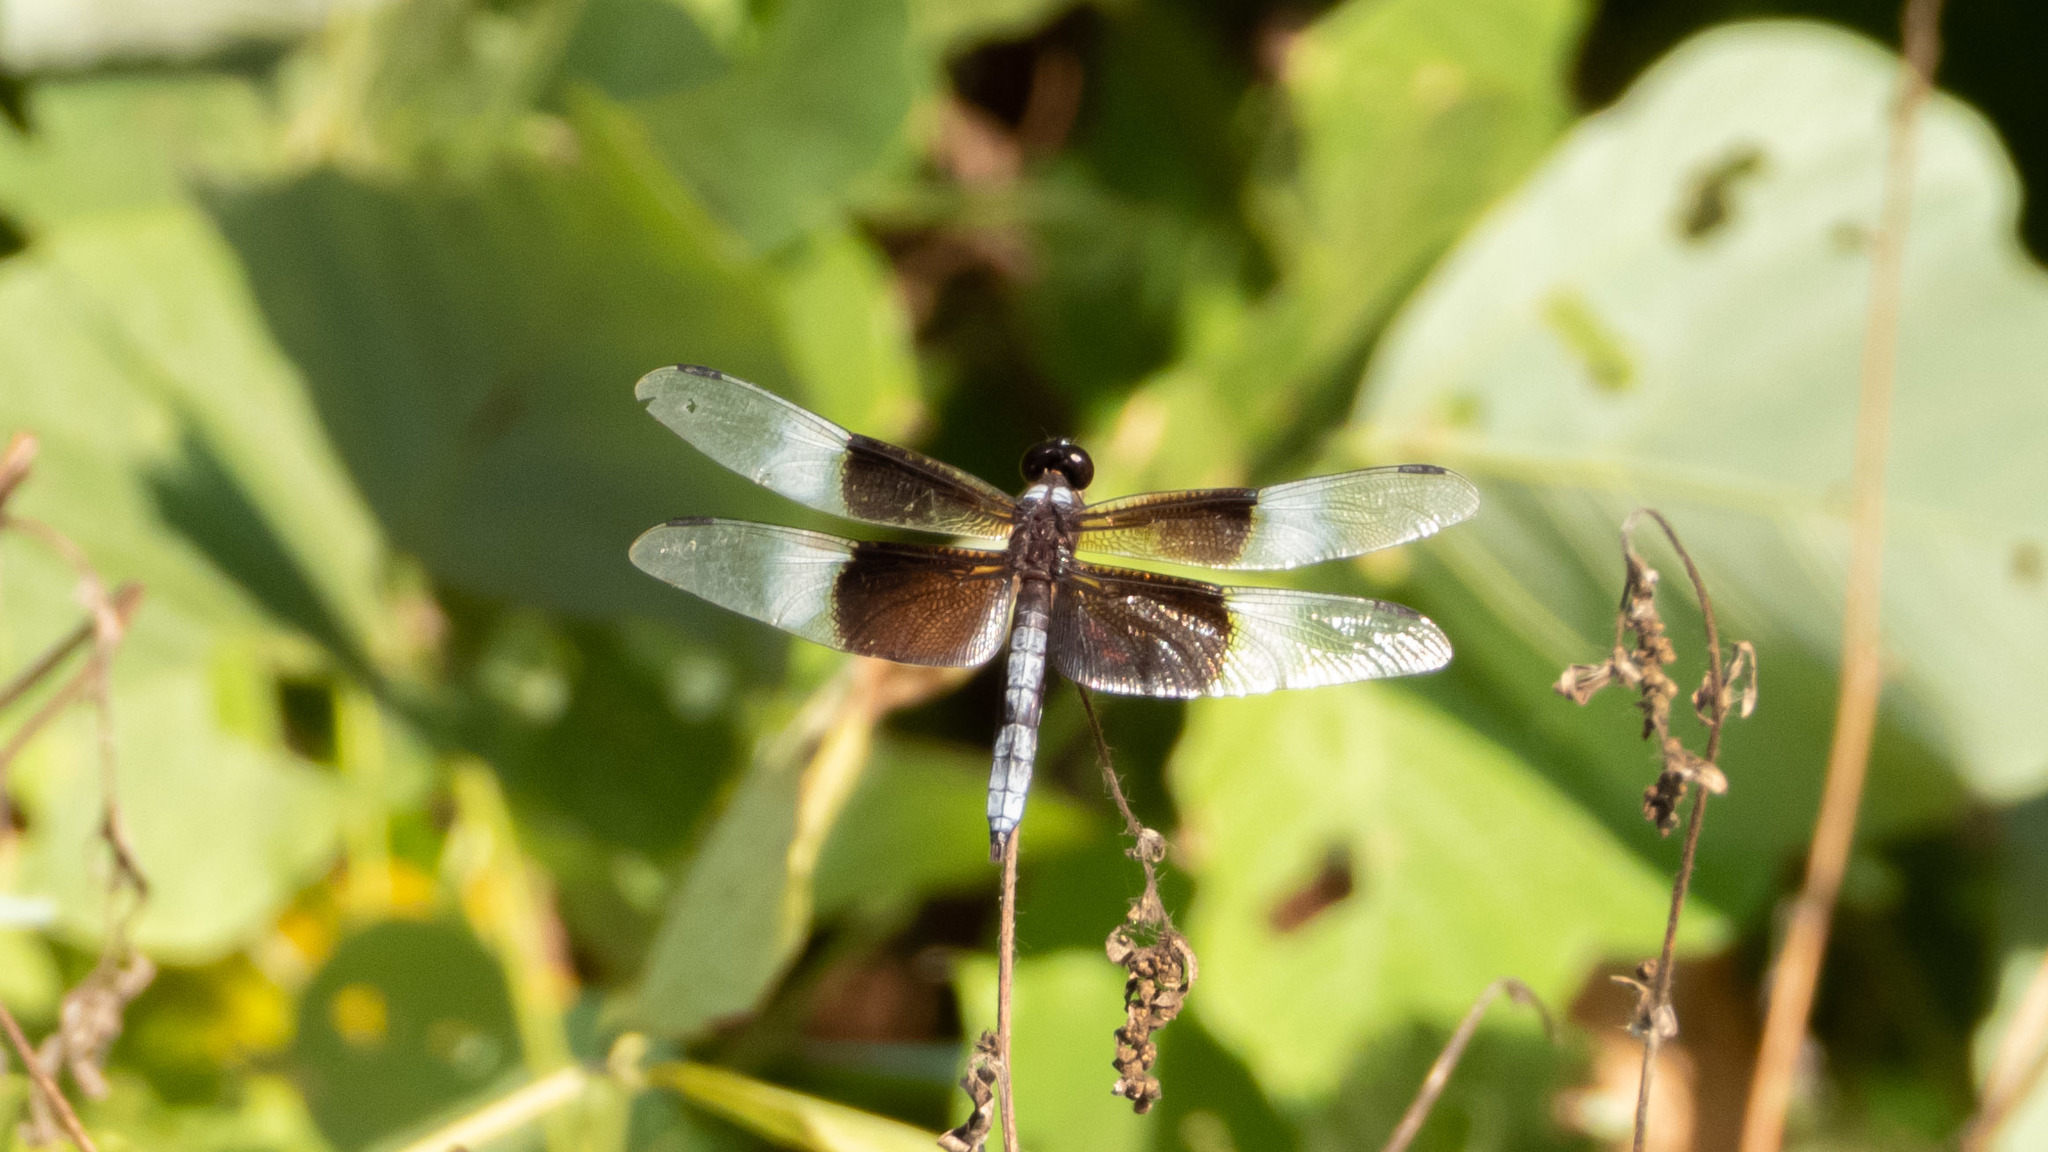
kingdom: Animalia
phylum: Arthropoda
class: Insecta
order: Odonata
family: Libellulidae
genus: Libellula
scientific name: Libellula luctuosa
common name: Widow skimmer
